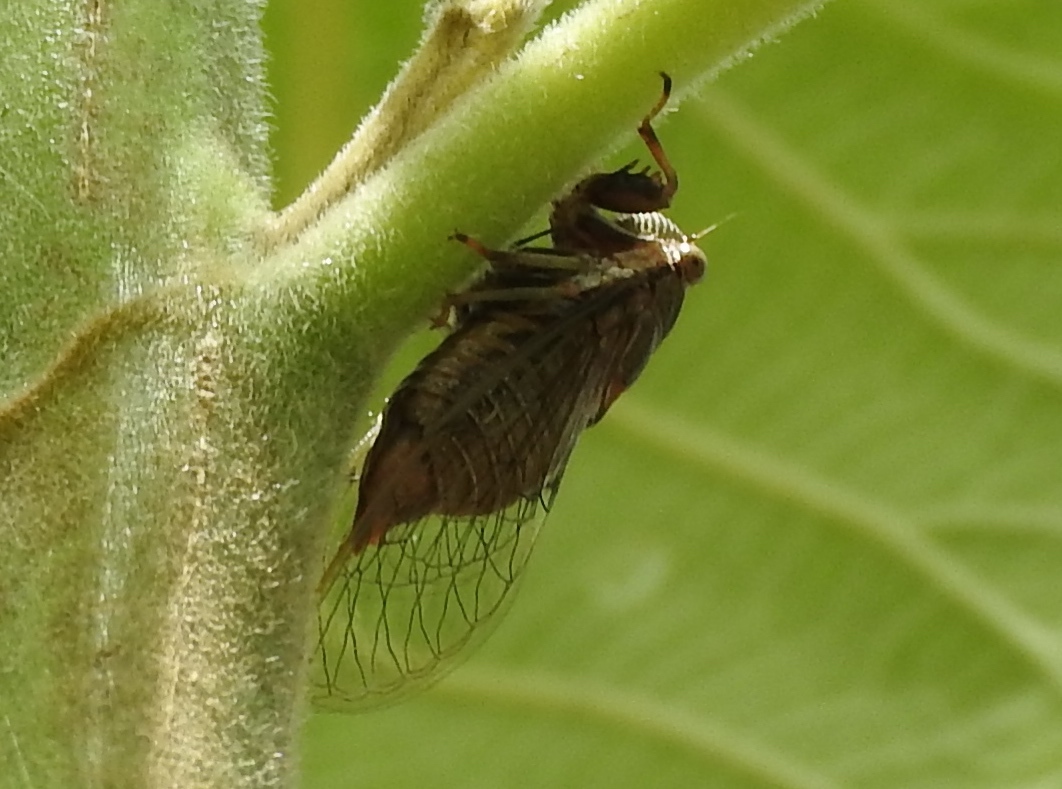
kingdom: Animalia
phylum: Arthropoda
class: Insecta
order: Hemiptera
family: Cicadidae
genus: Herrera
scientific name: Herrera lugubrina
